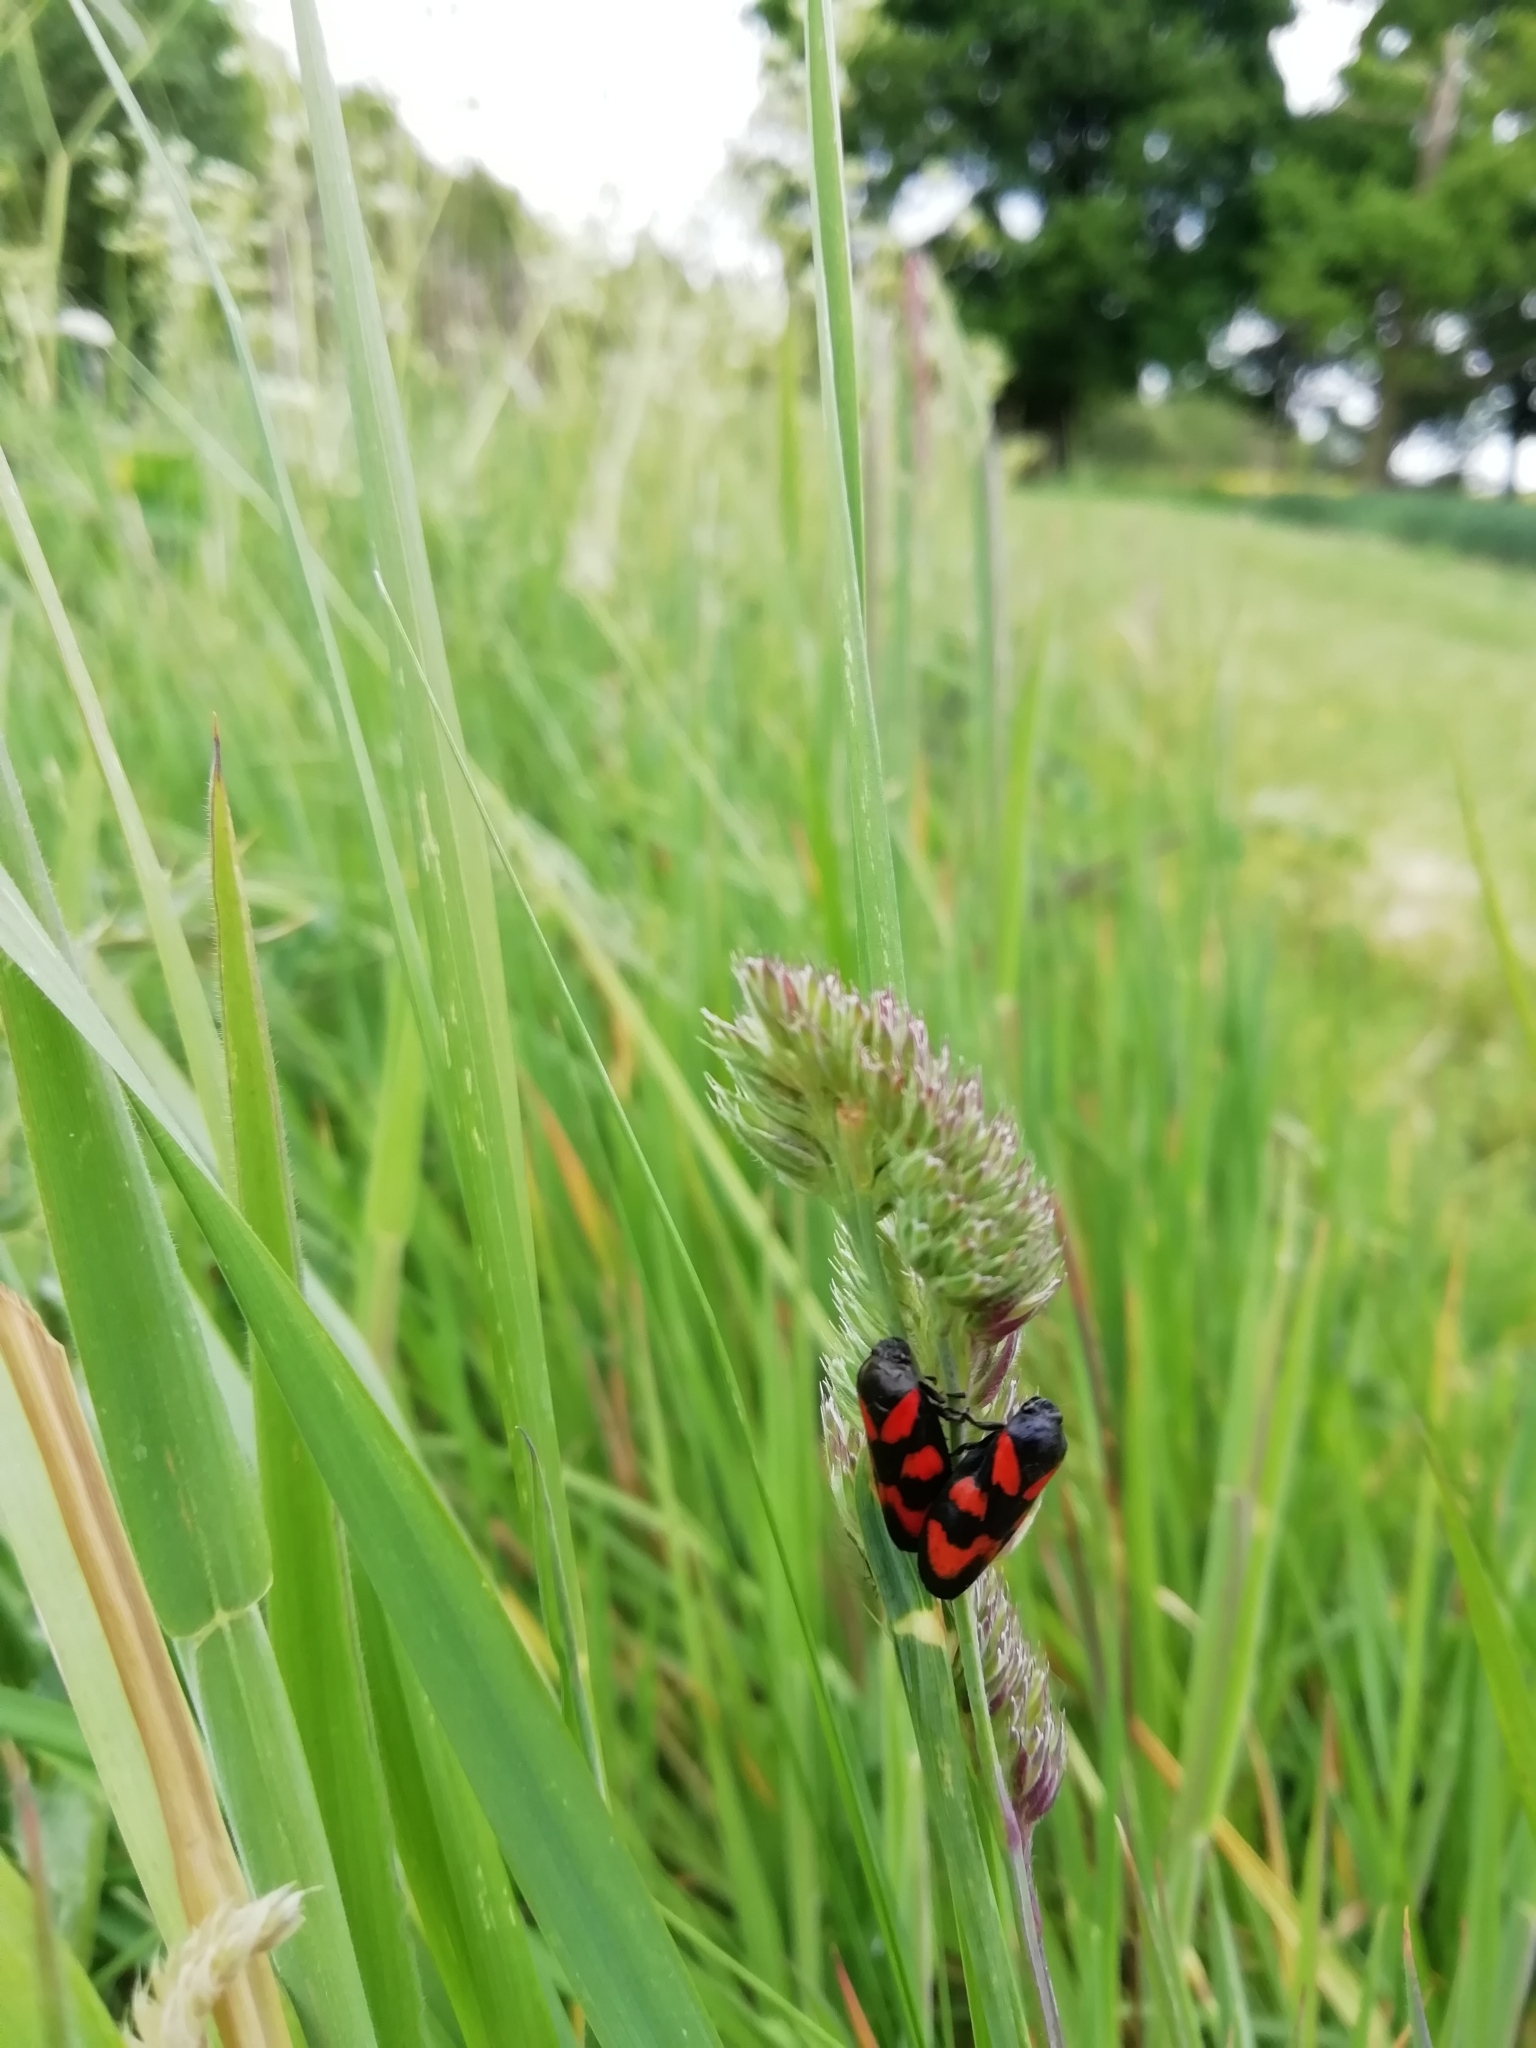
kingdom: Animalia
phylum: Arthropoda
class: Insecta
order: Hemiptera
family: Cercopidae
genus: Cercopis
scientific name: Cercopis vulnerata
